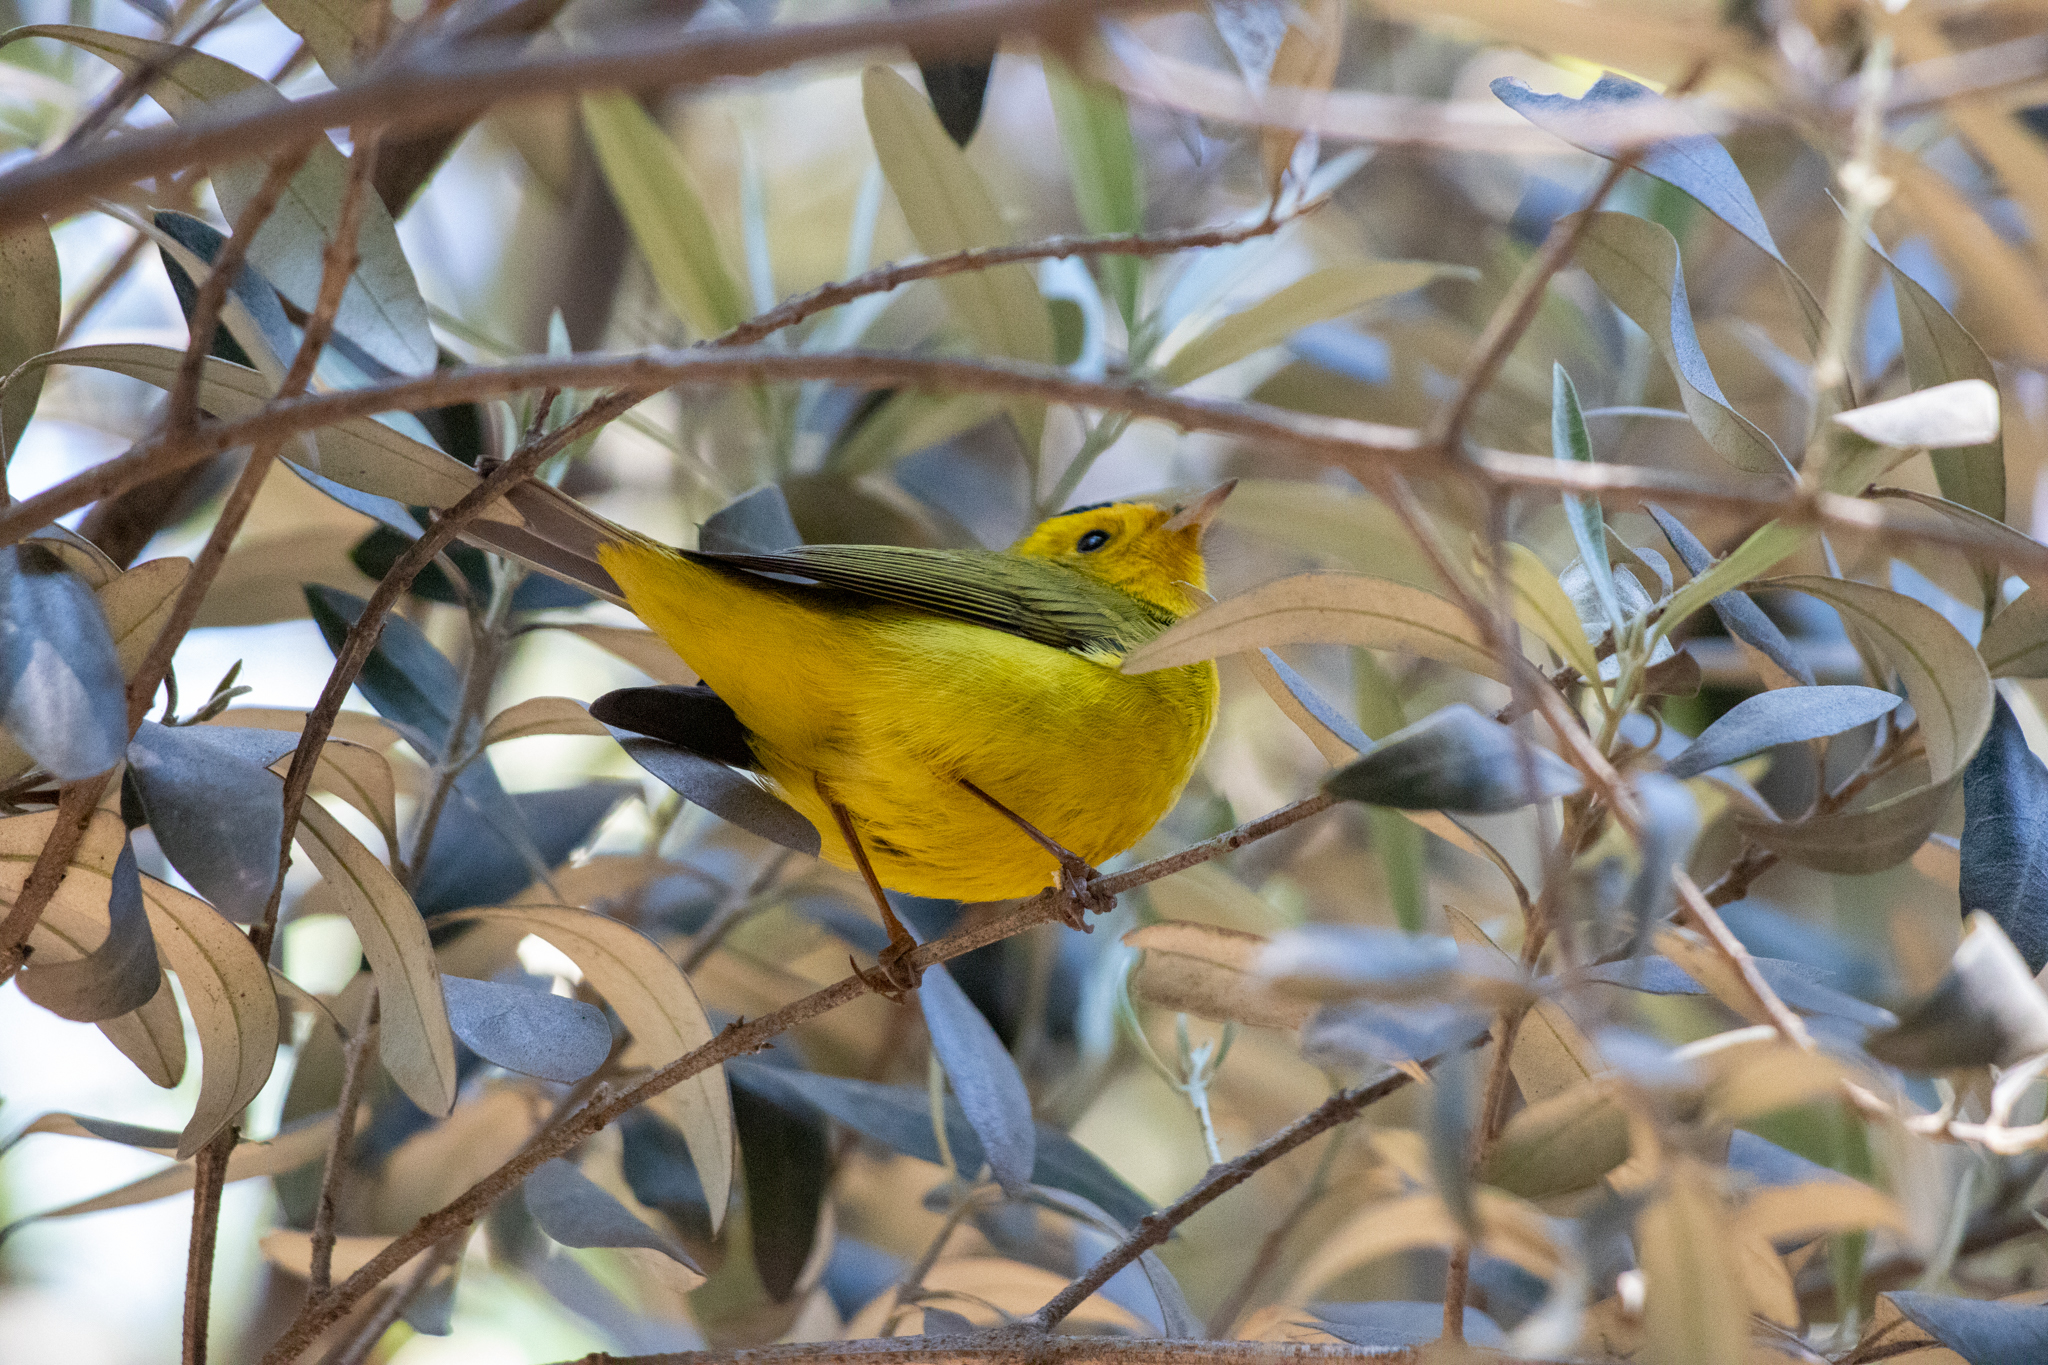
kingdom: Animalia
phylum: Chordata
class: Aves
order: Passeriformes
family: Parulidae
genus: Cardellina
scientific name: Cardellina pusilla
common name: Wilson's warbler
